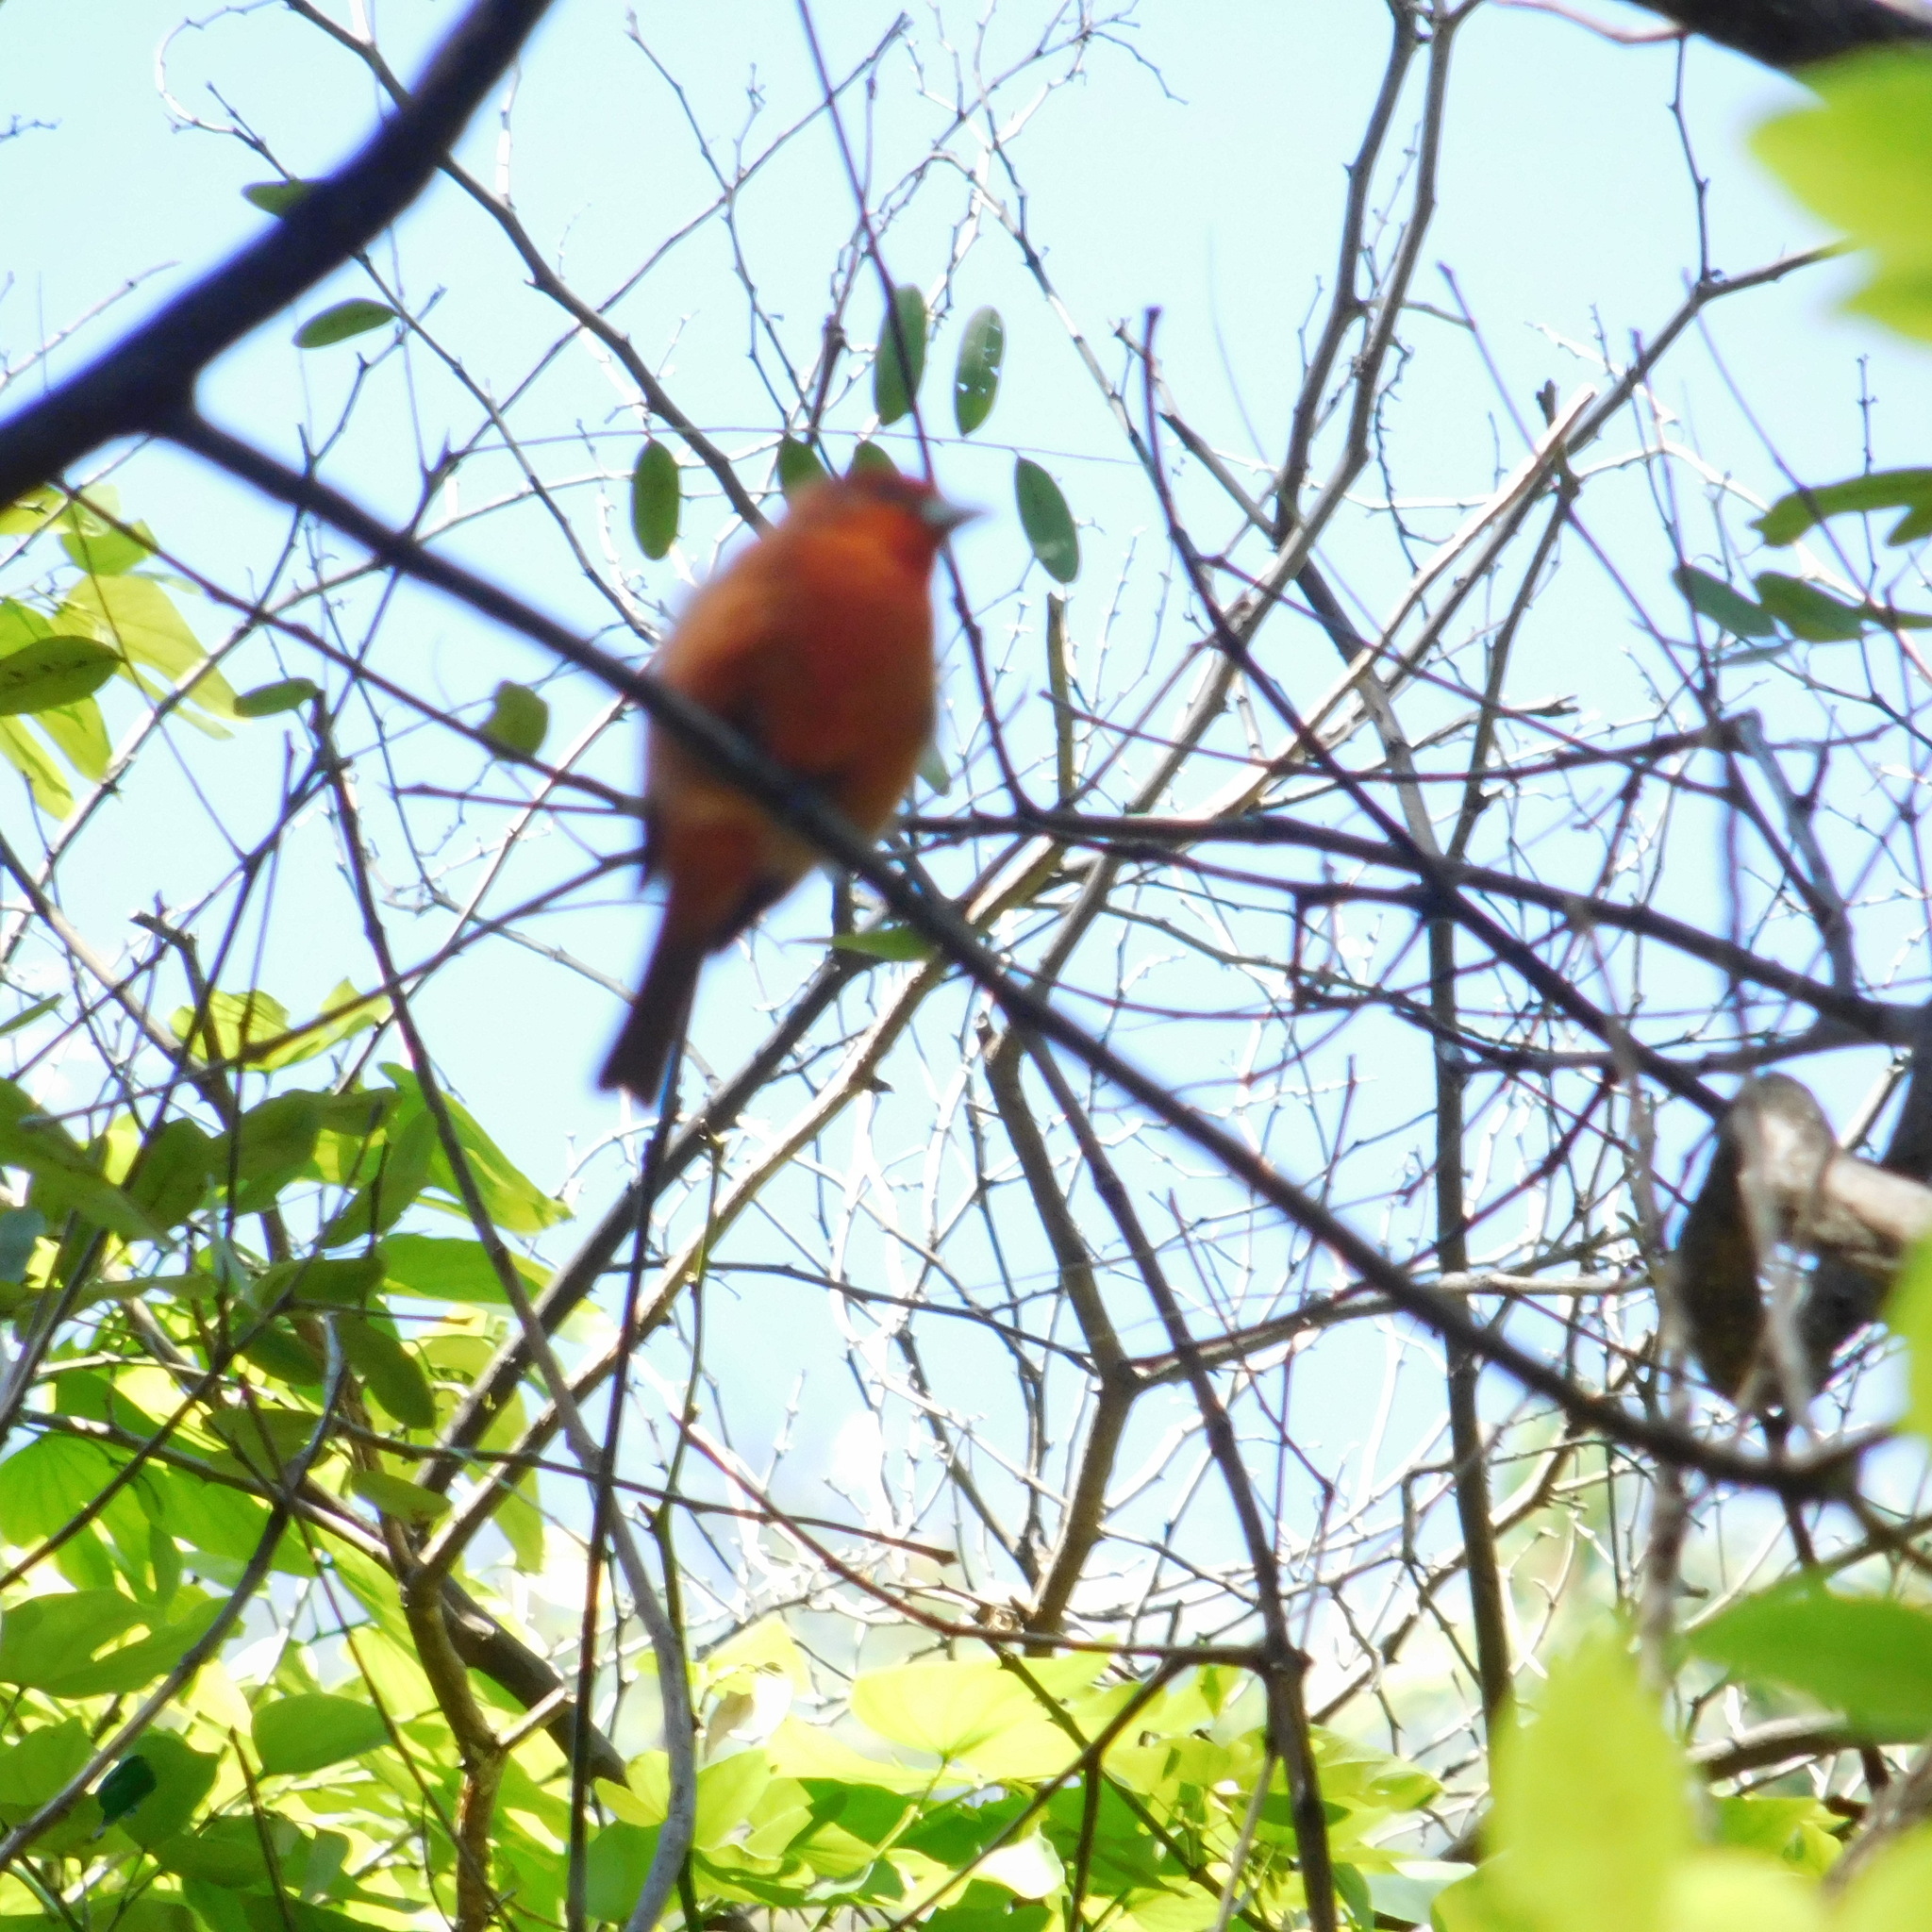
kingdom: Animalia
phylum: Chordata
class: Aves
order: Passeriformes
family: Cardinalidae
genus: Piranga
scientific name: Piranga flava
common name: Red tanager
